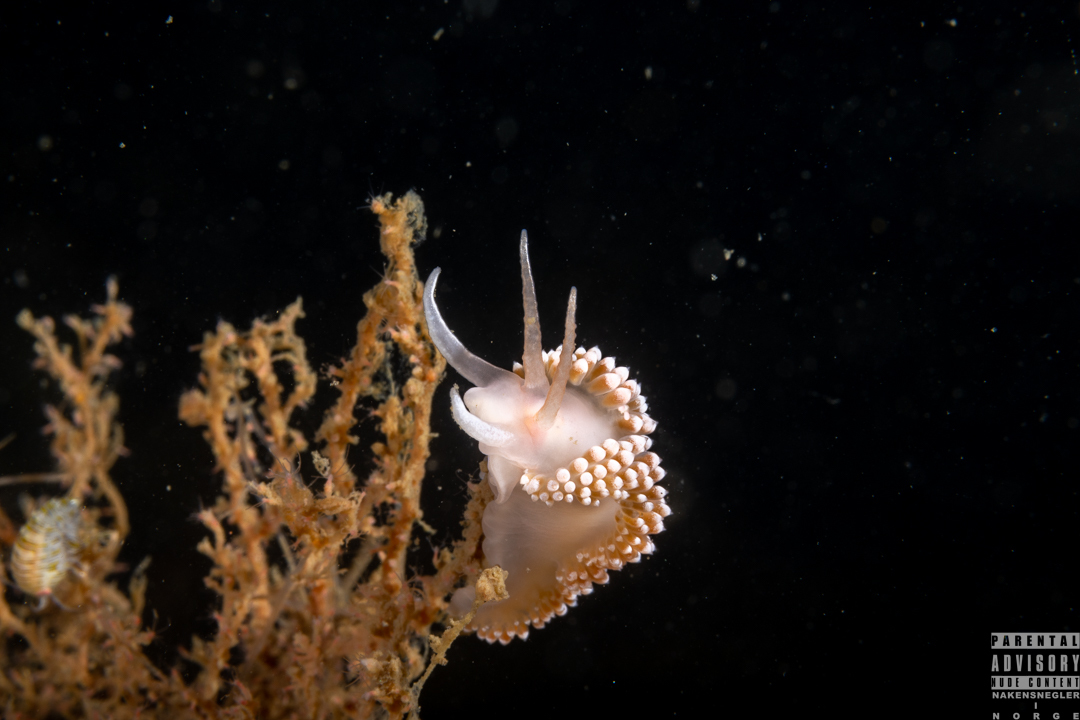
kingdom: Animalia
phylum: Mollusca
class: Gastropoda
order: Nudibranchia
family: Coryphellidae
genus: Coryphella
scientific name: Coryphella verrucosa
